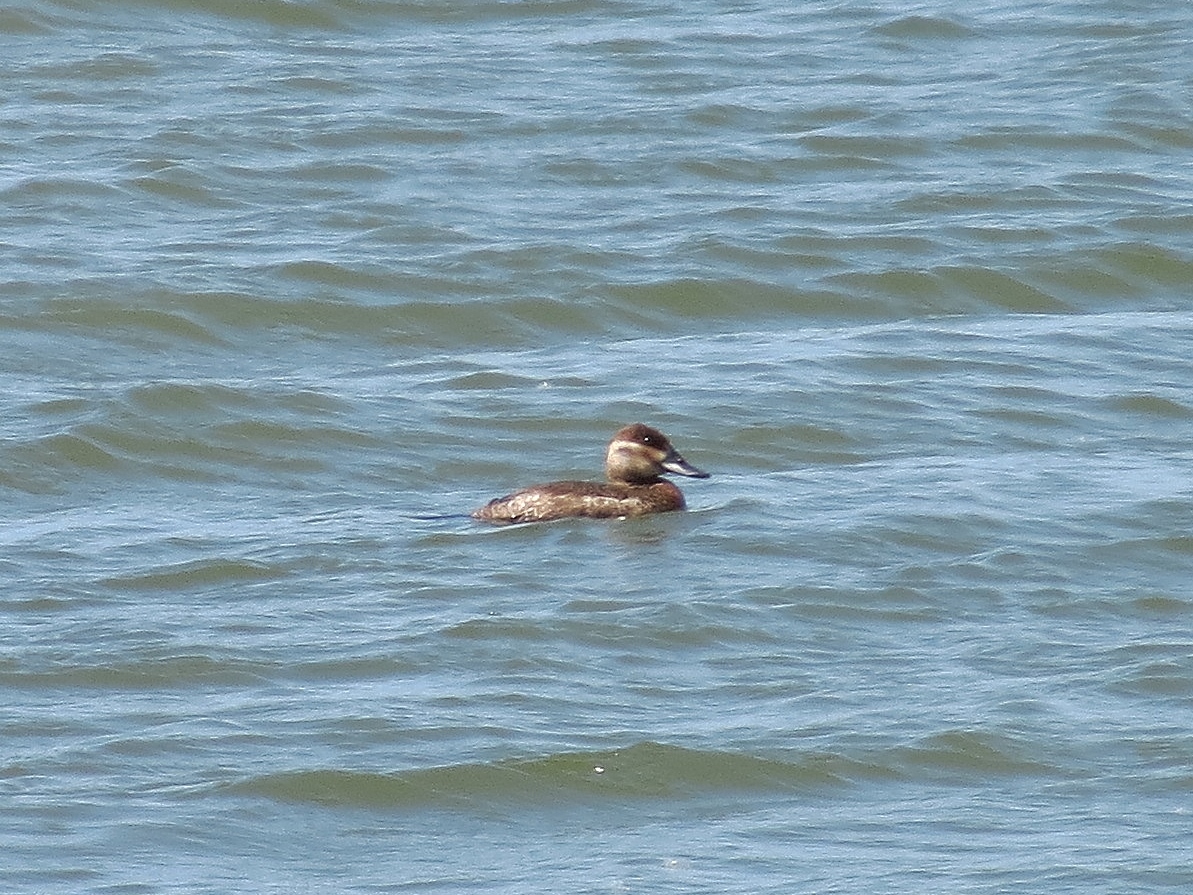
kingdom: Animalia
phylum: Chordata
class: Aves
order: Anseriformes
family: Anatidae
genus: Oxyura
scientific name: Oxyura jamaicensis
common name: Ruddy duck
